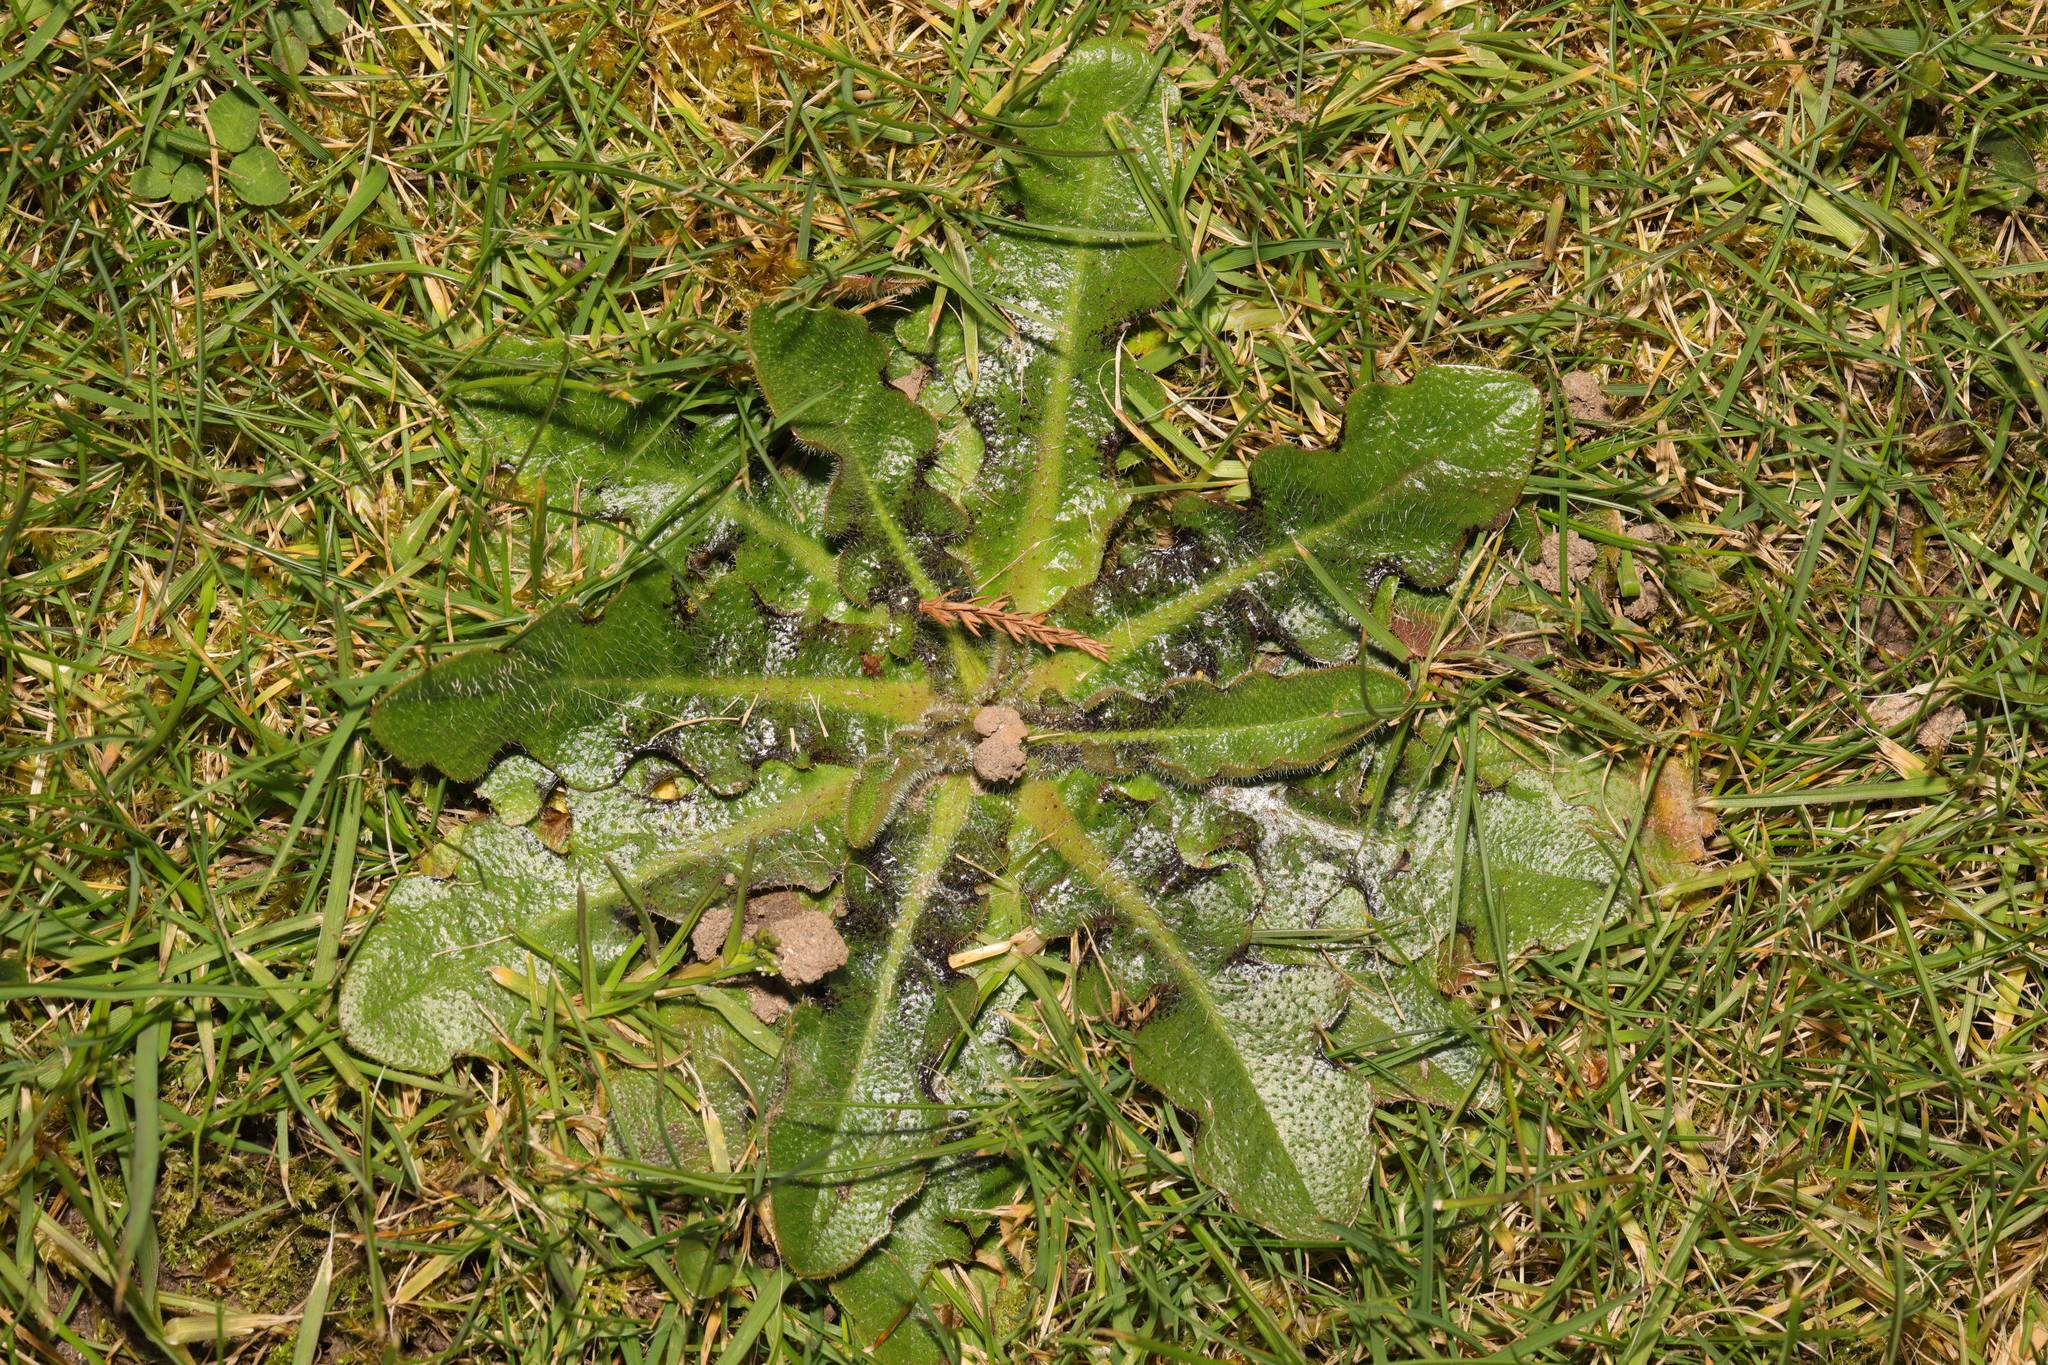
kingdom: Plantae
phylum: Tracheophyta
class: Magnoliopsida
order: Asterales
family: Asteraceae
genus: Hypochaeris
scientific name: Hypochaeris radicata
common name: Flatweed
